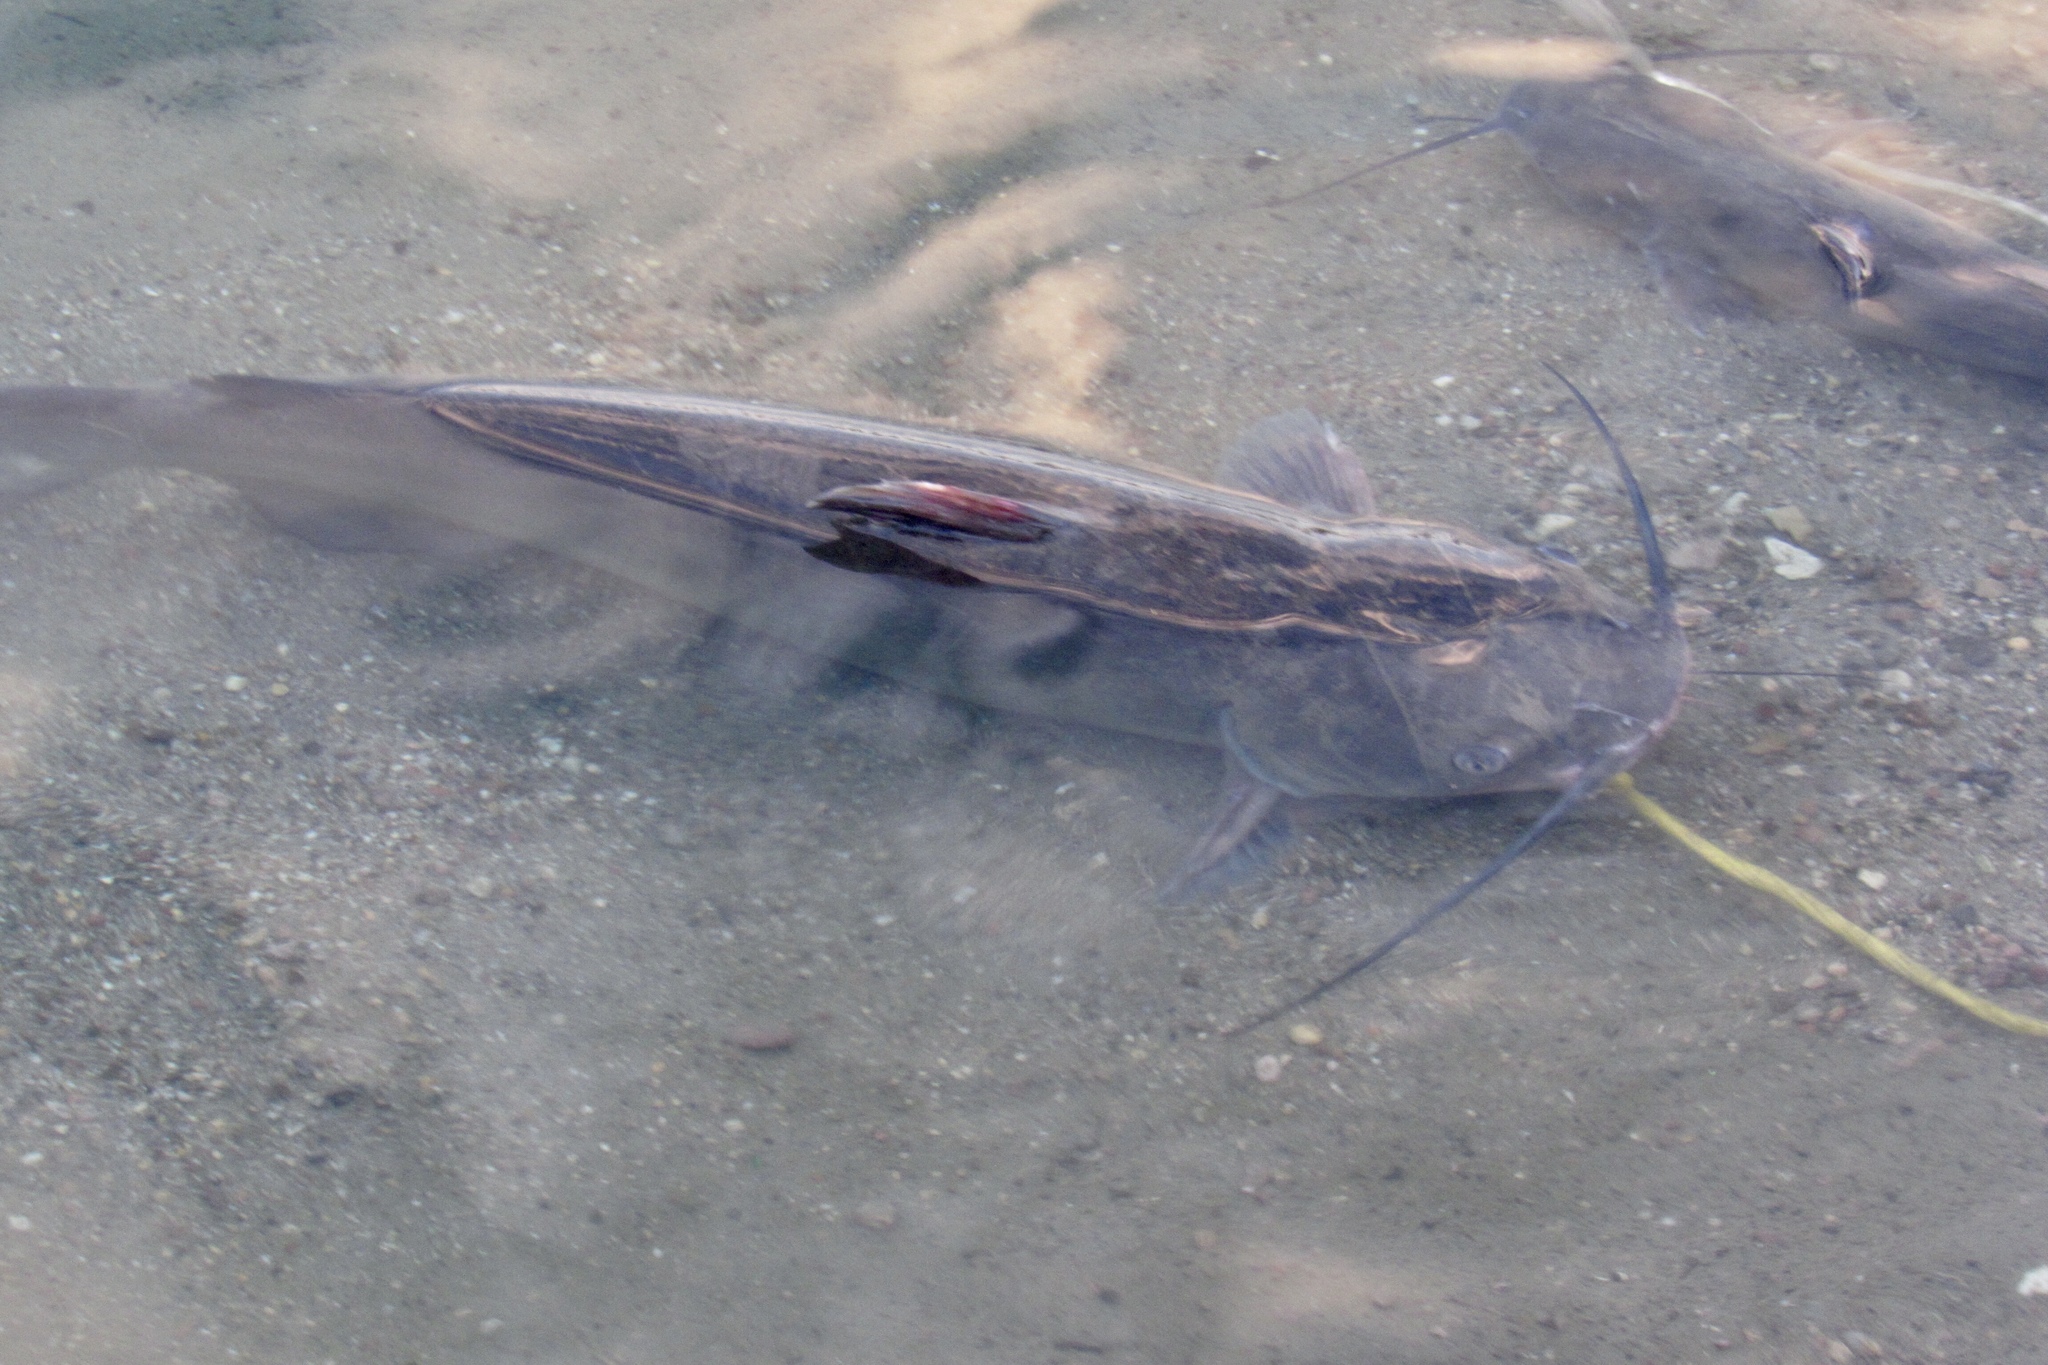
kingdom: Animalia
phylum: Chordata
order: Siluriformes
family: Ictaluridae
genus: Ictalurus
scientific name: Ictalurus punctatus
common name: Channel catfish
